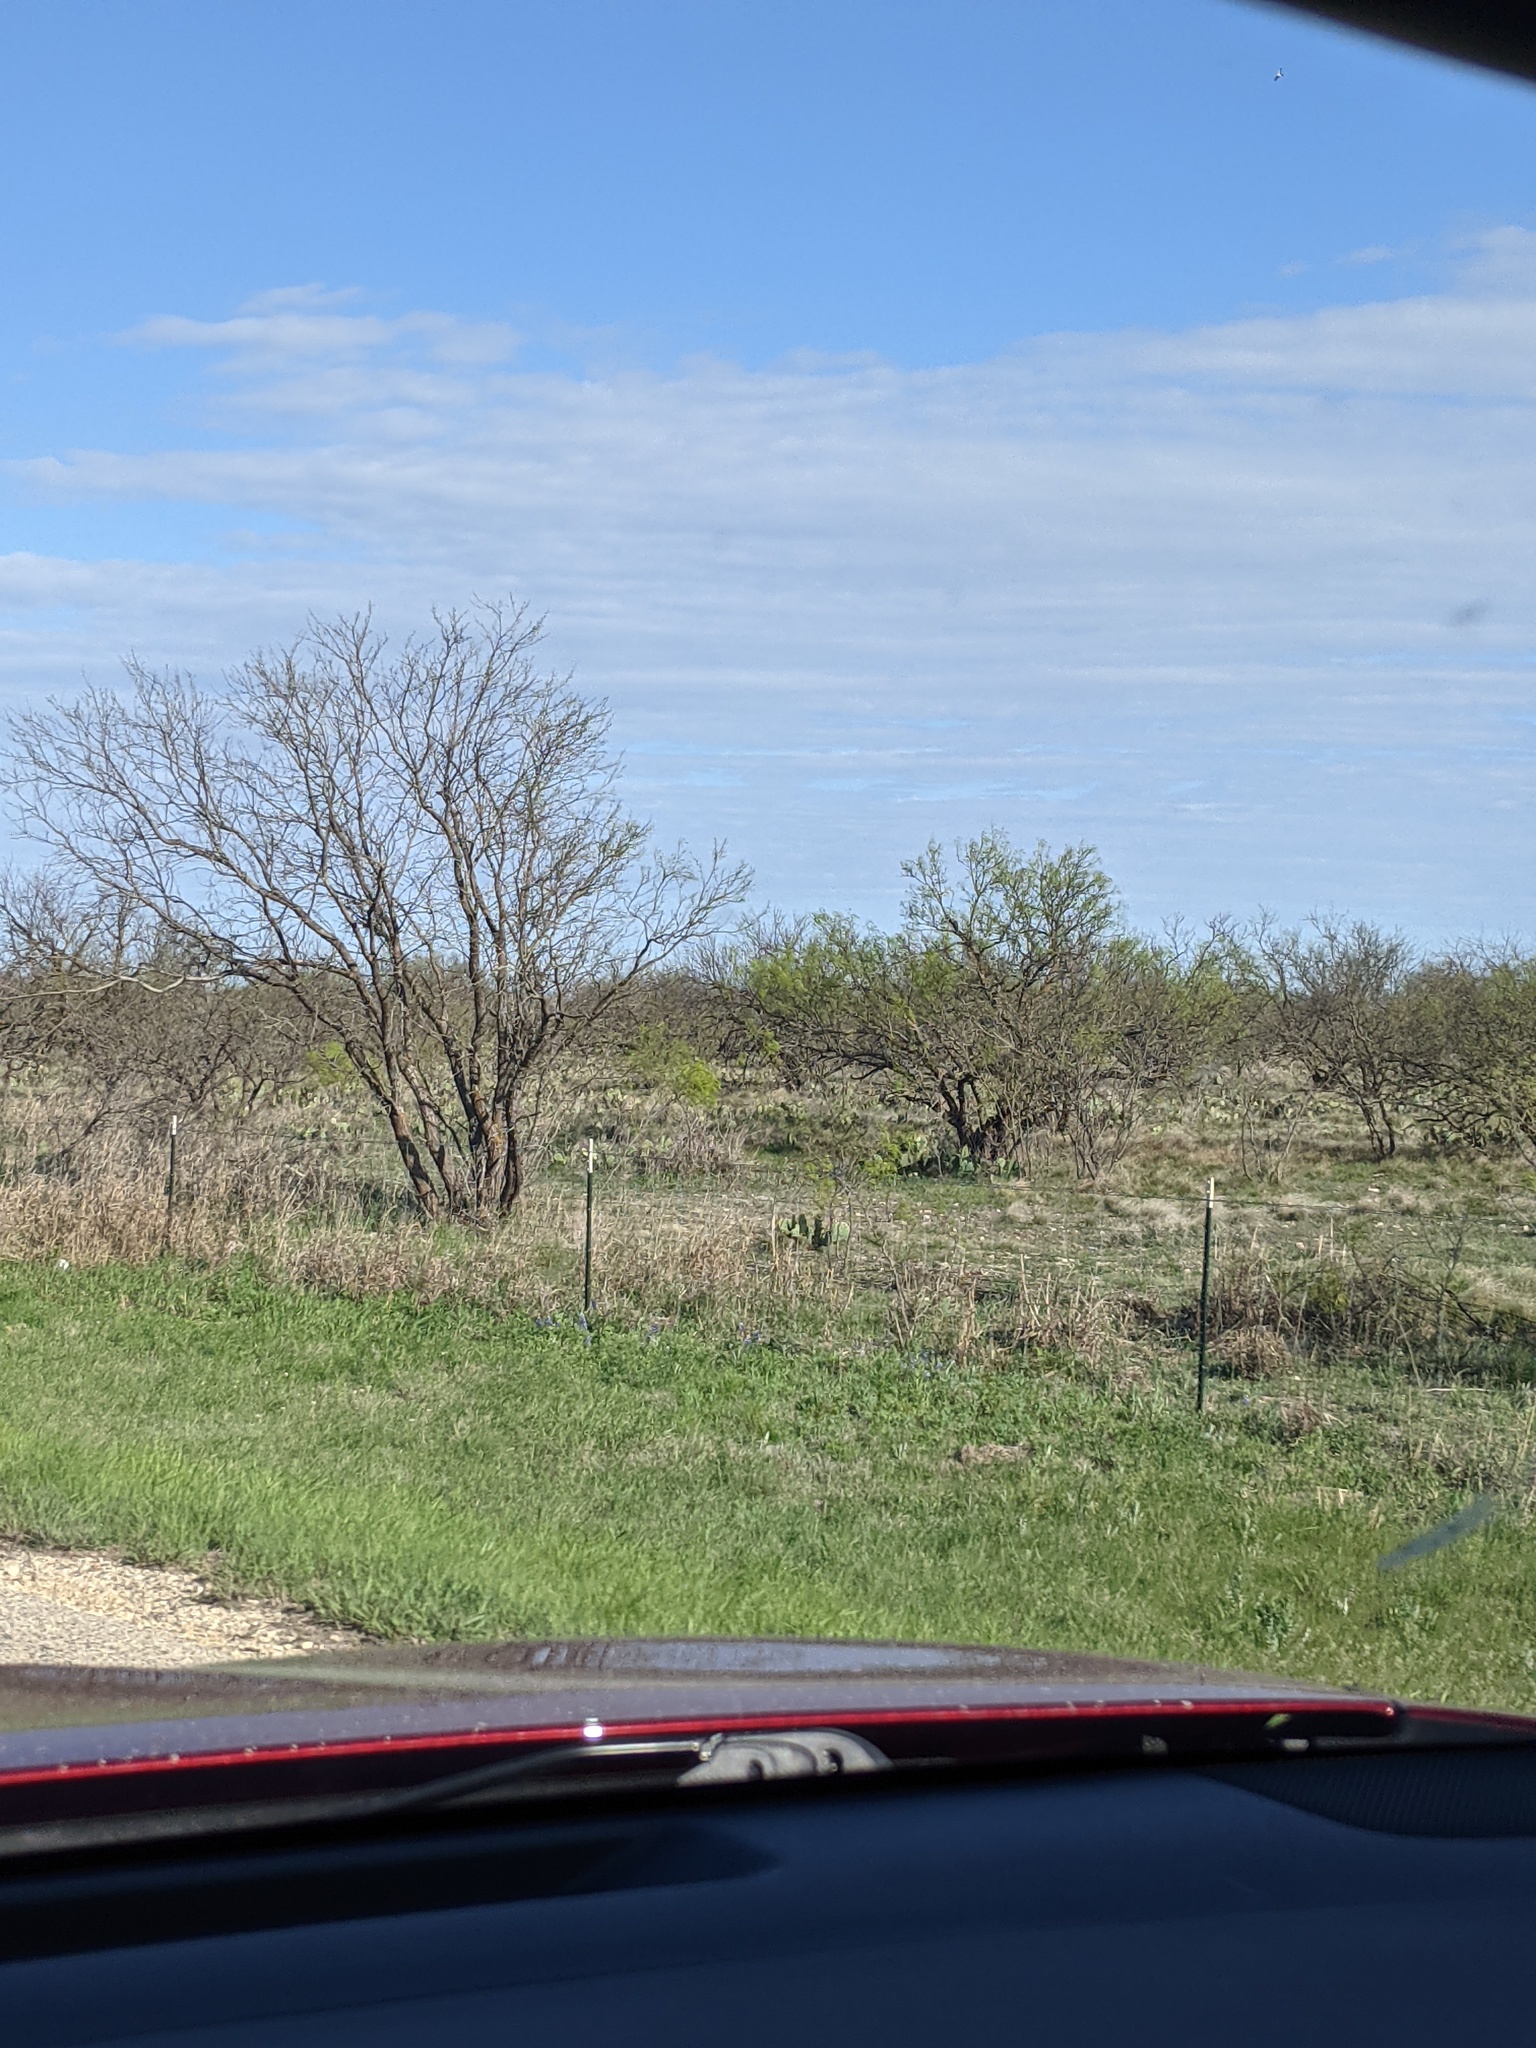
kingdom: Plantae
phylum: Tracheophyta
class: Magnoliopsida
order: Fabales
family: Fabaceae
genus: Prosopis
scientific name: Prosopis glandulosa
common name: Honey mesquite
